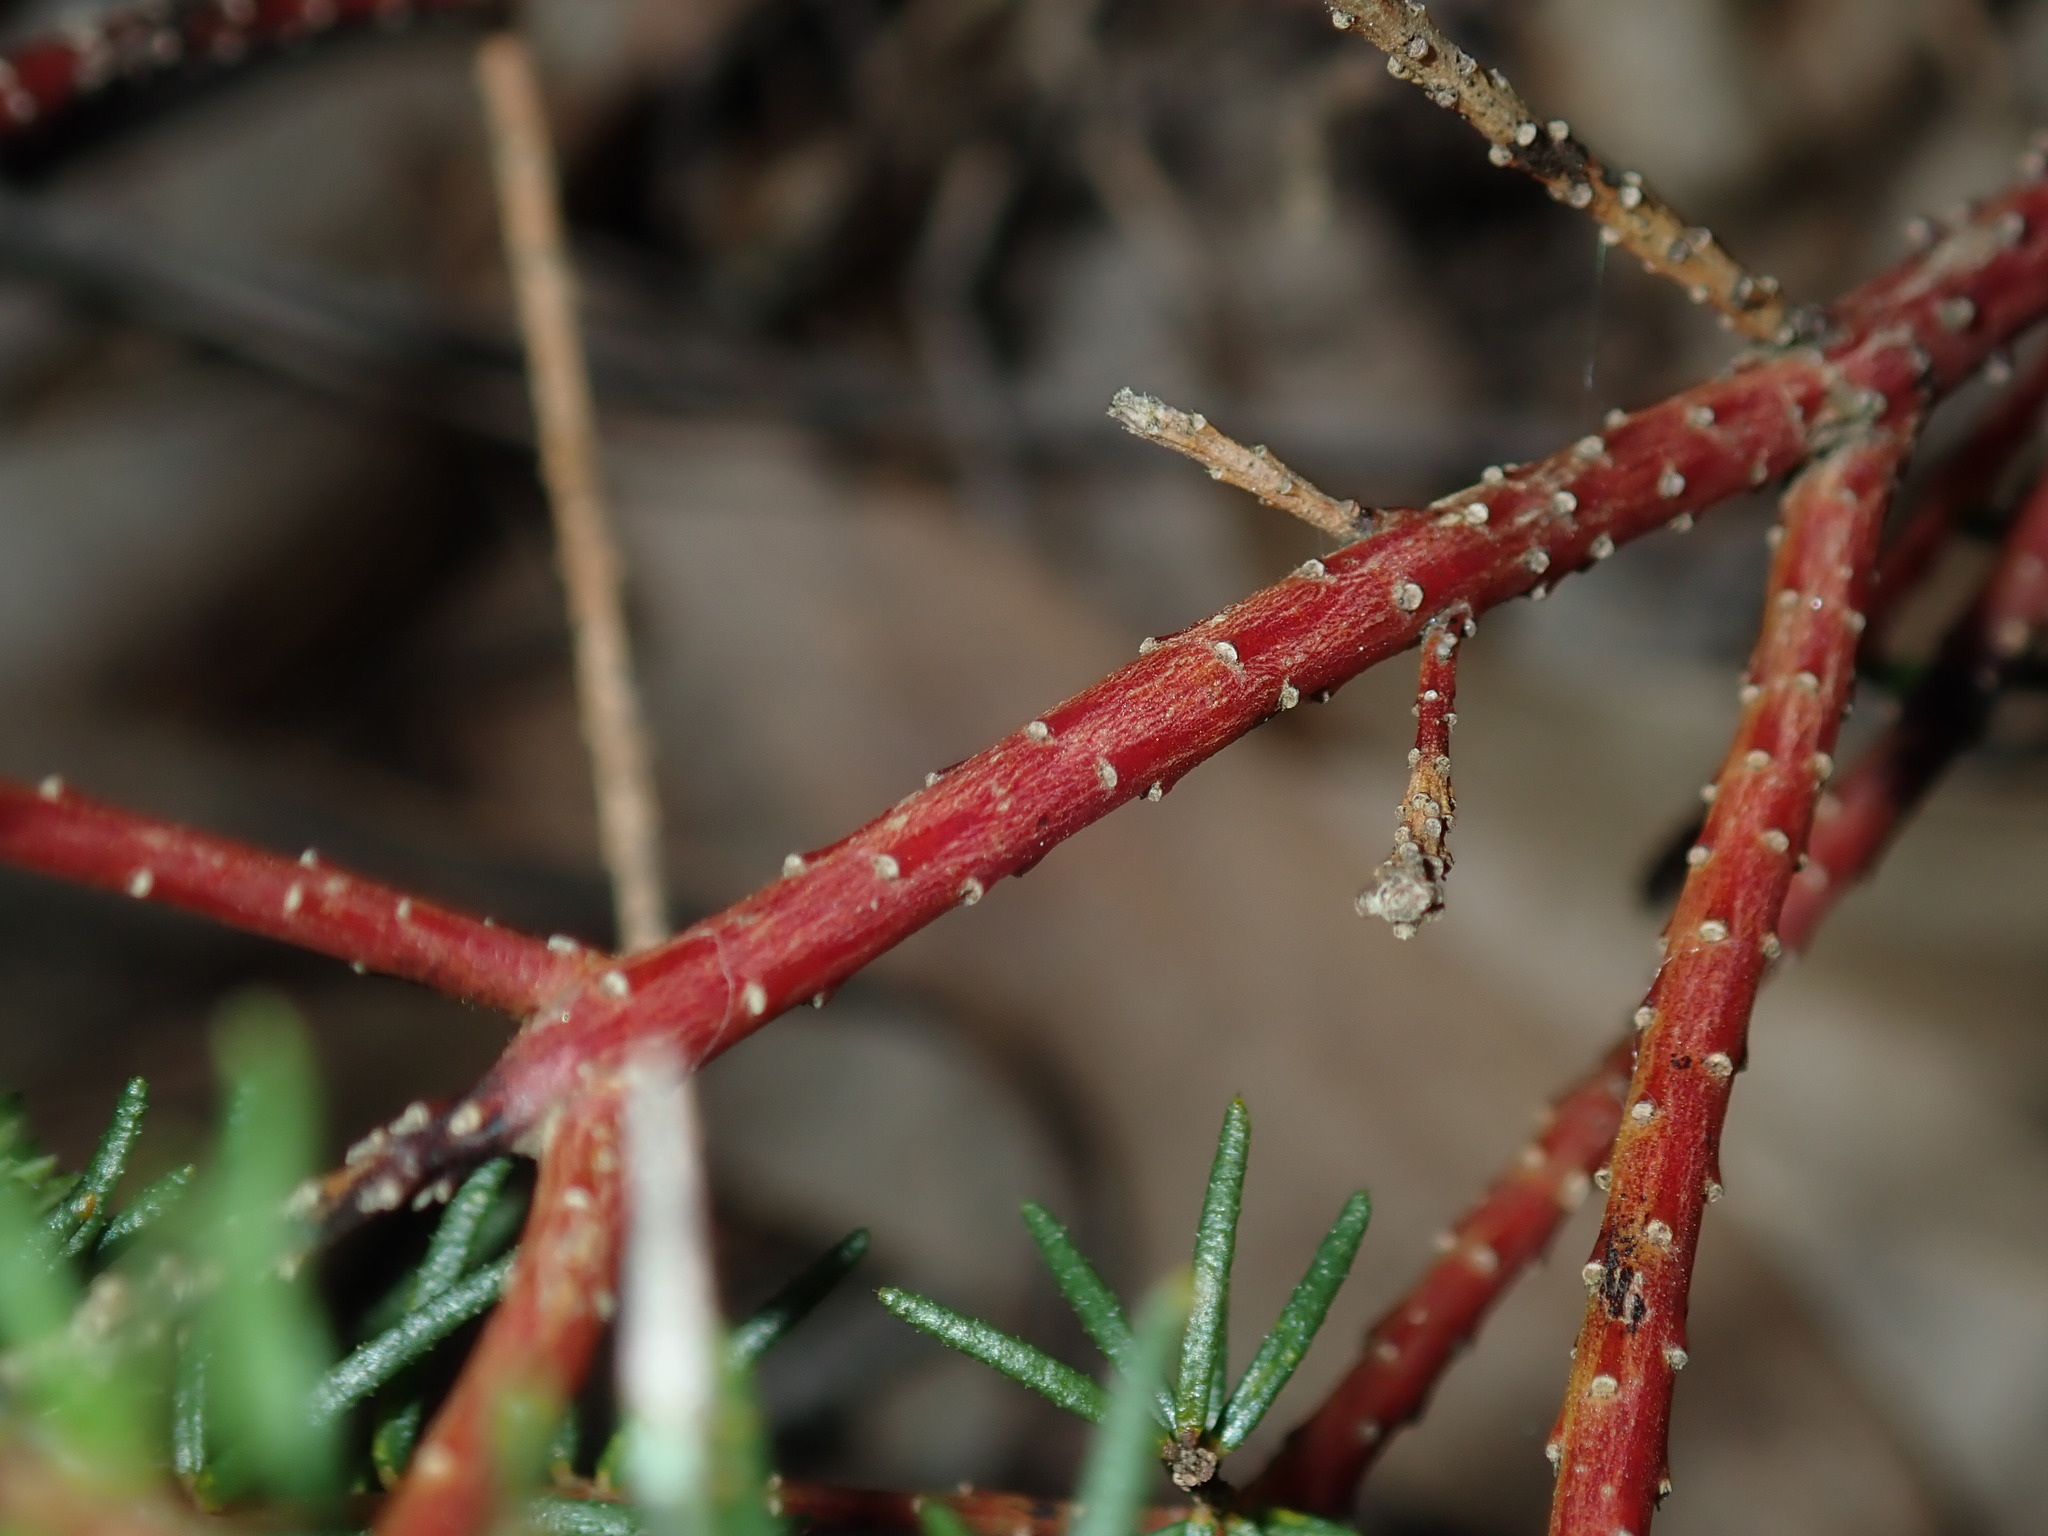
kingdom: Plantae
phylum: Tracheophyta
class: Magnoliopsida
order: Fabales
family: Fabaceae
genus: Phyllota
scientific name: Phyllota phylicoides
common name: Heath phyllota
